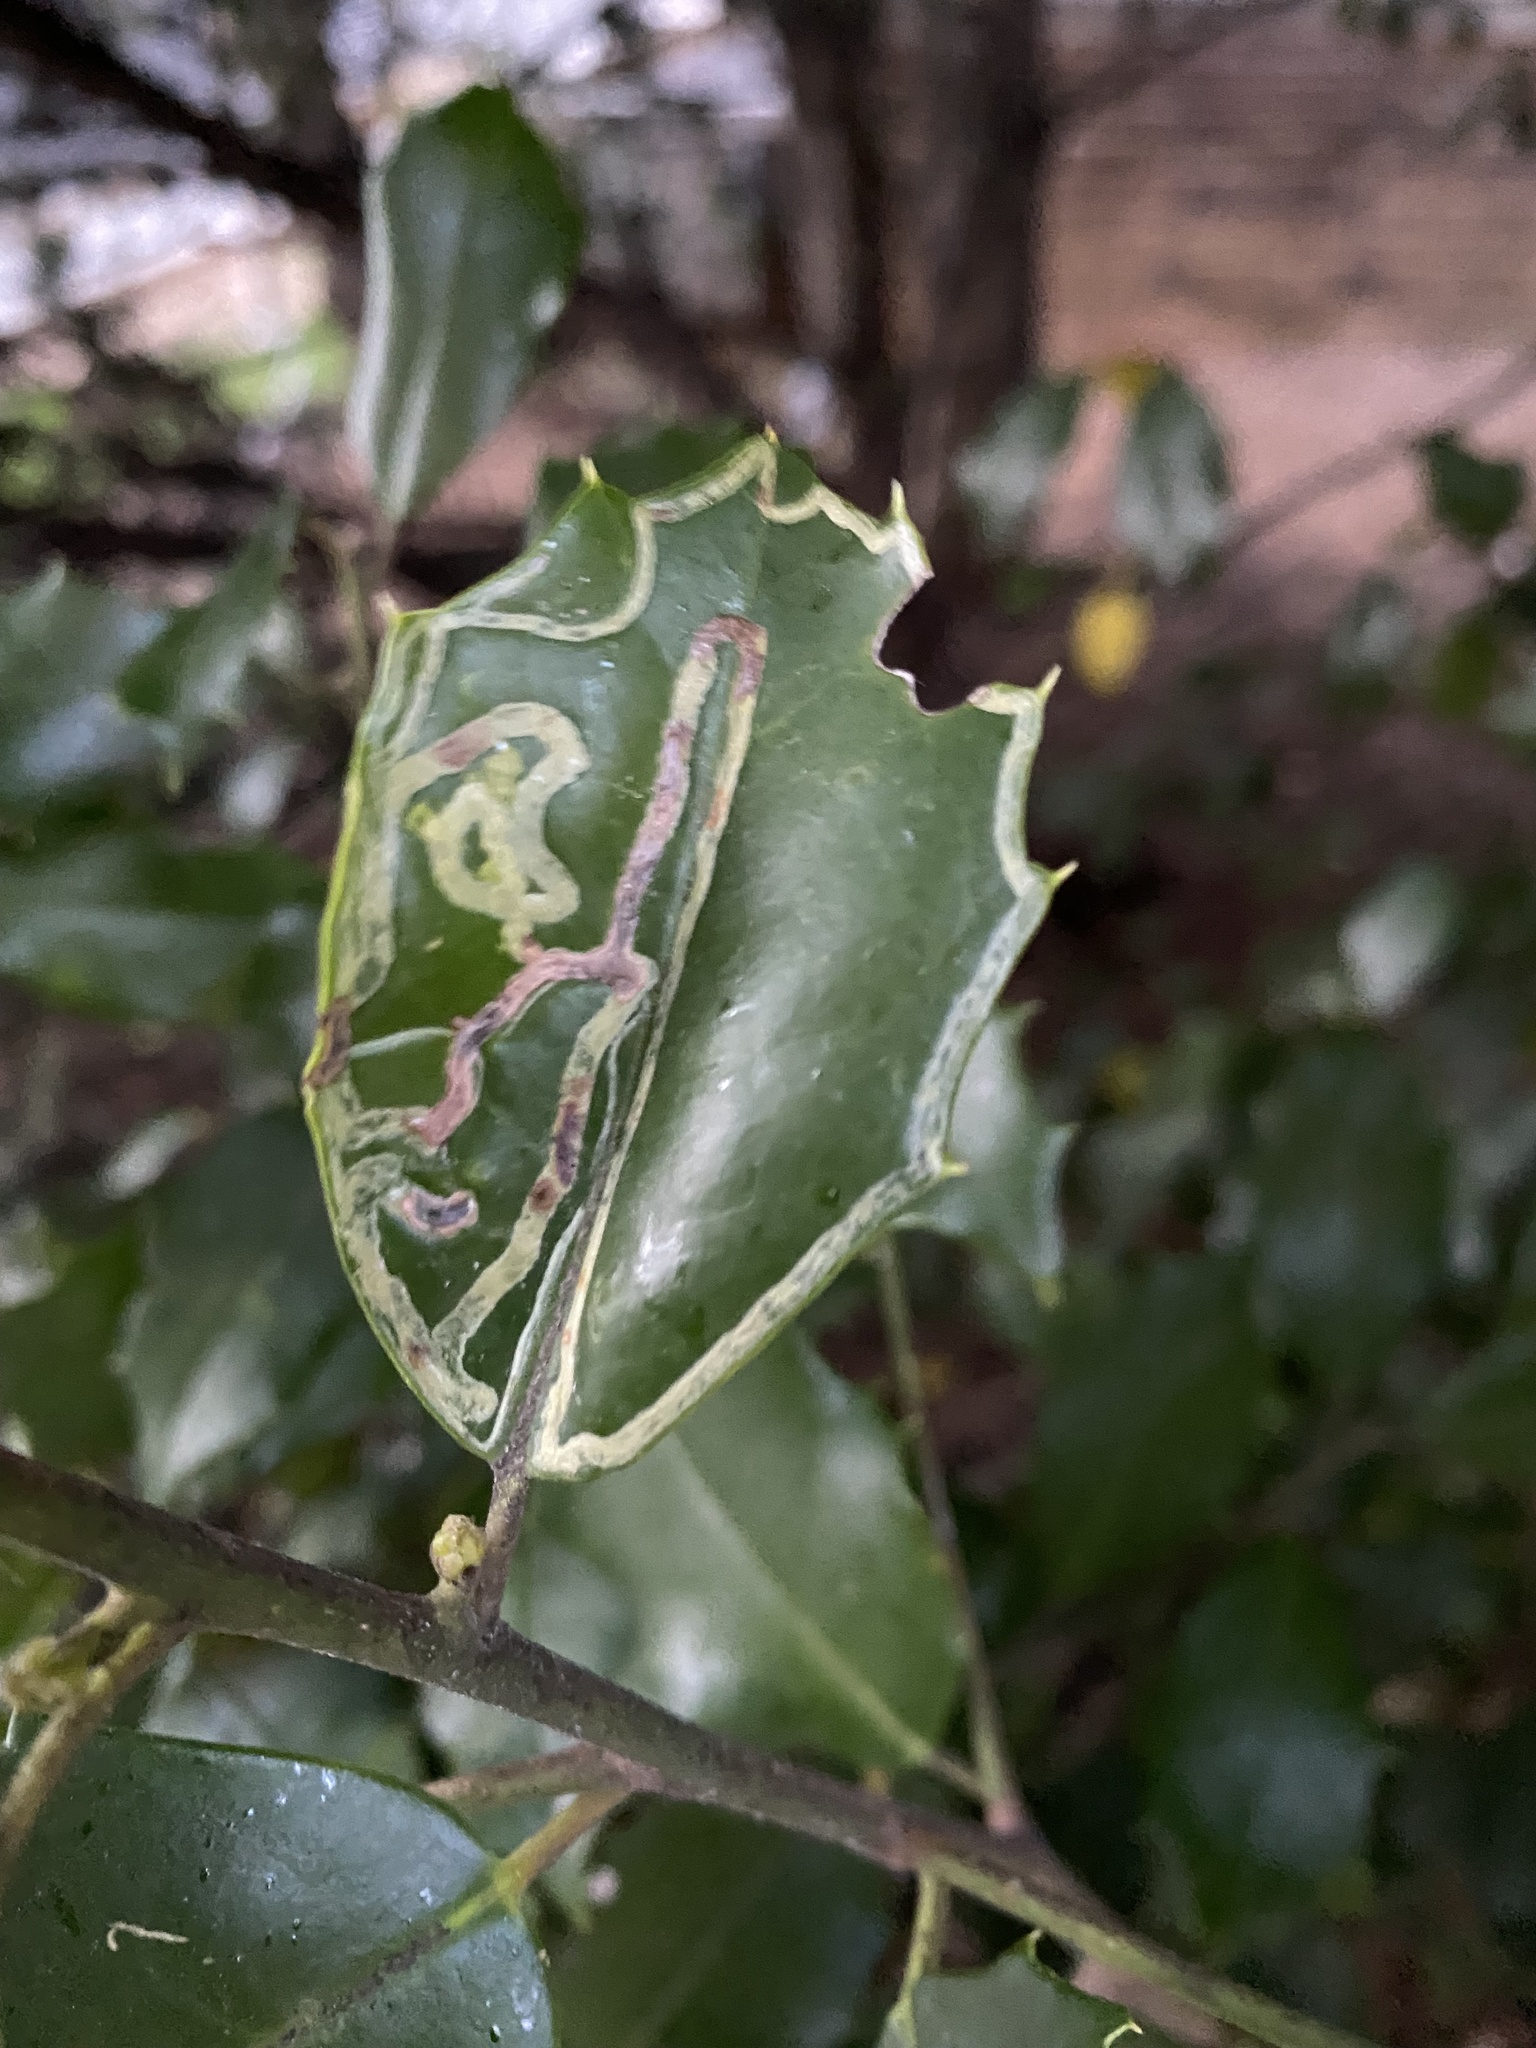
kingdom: Animalia
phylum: Arthropoda
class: Insecta
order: Diptera
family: Agromyzidae
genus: Phytomyza
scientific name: Phytomyza opacae
